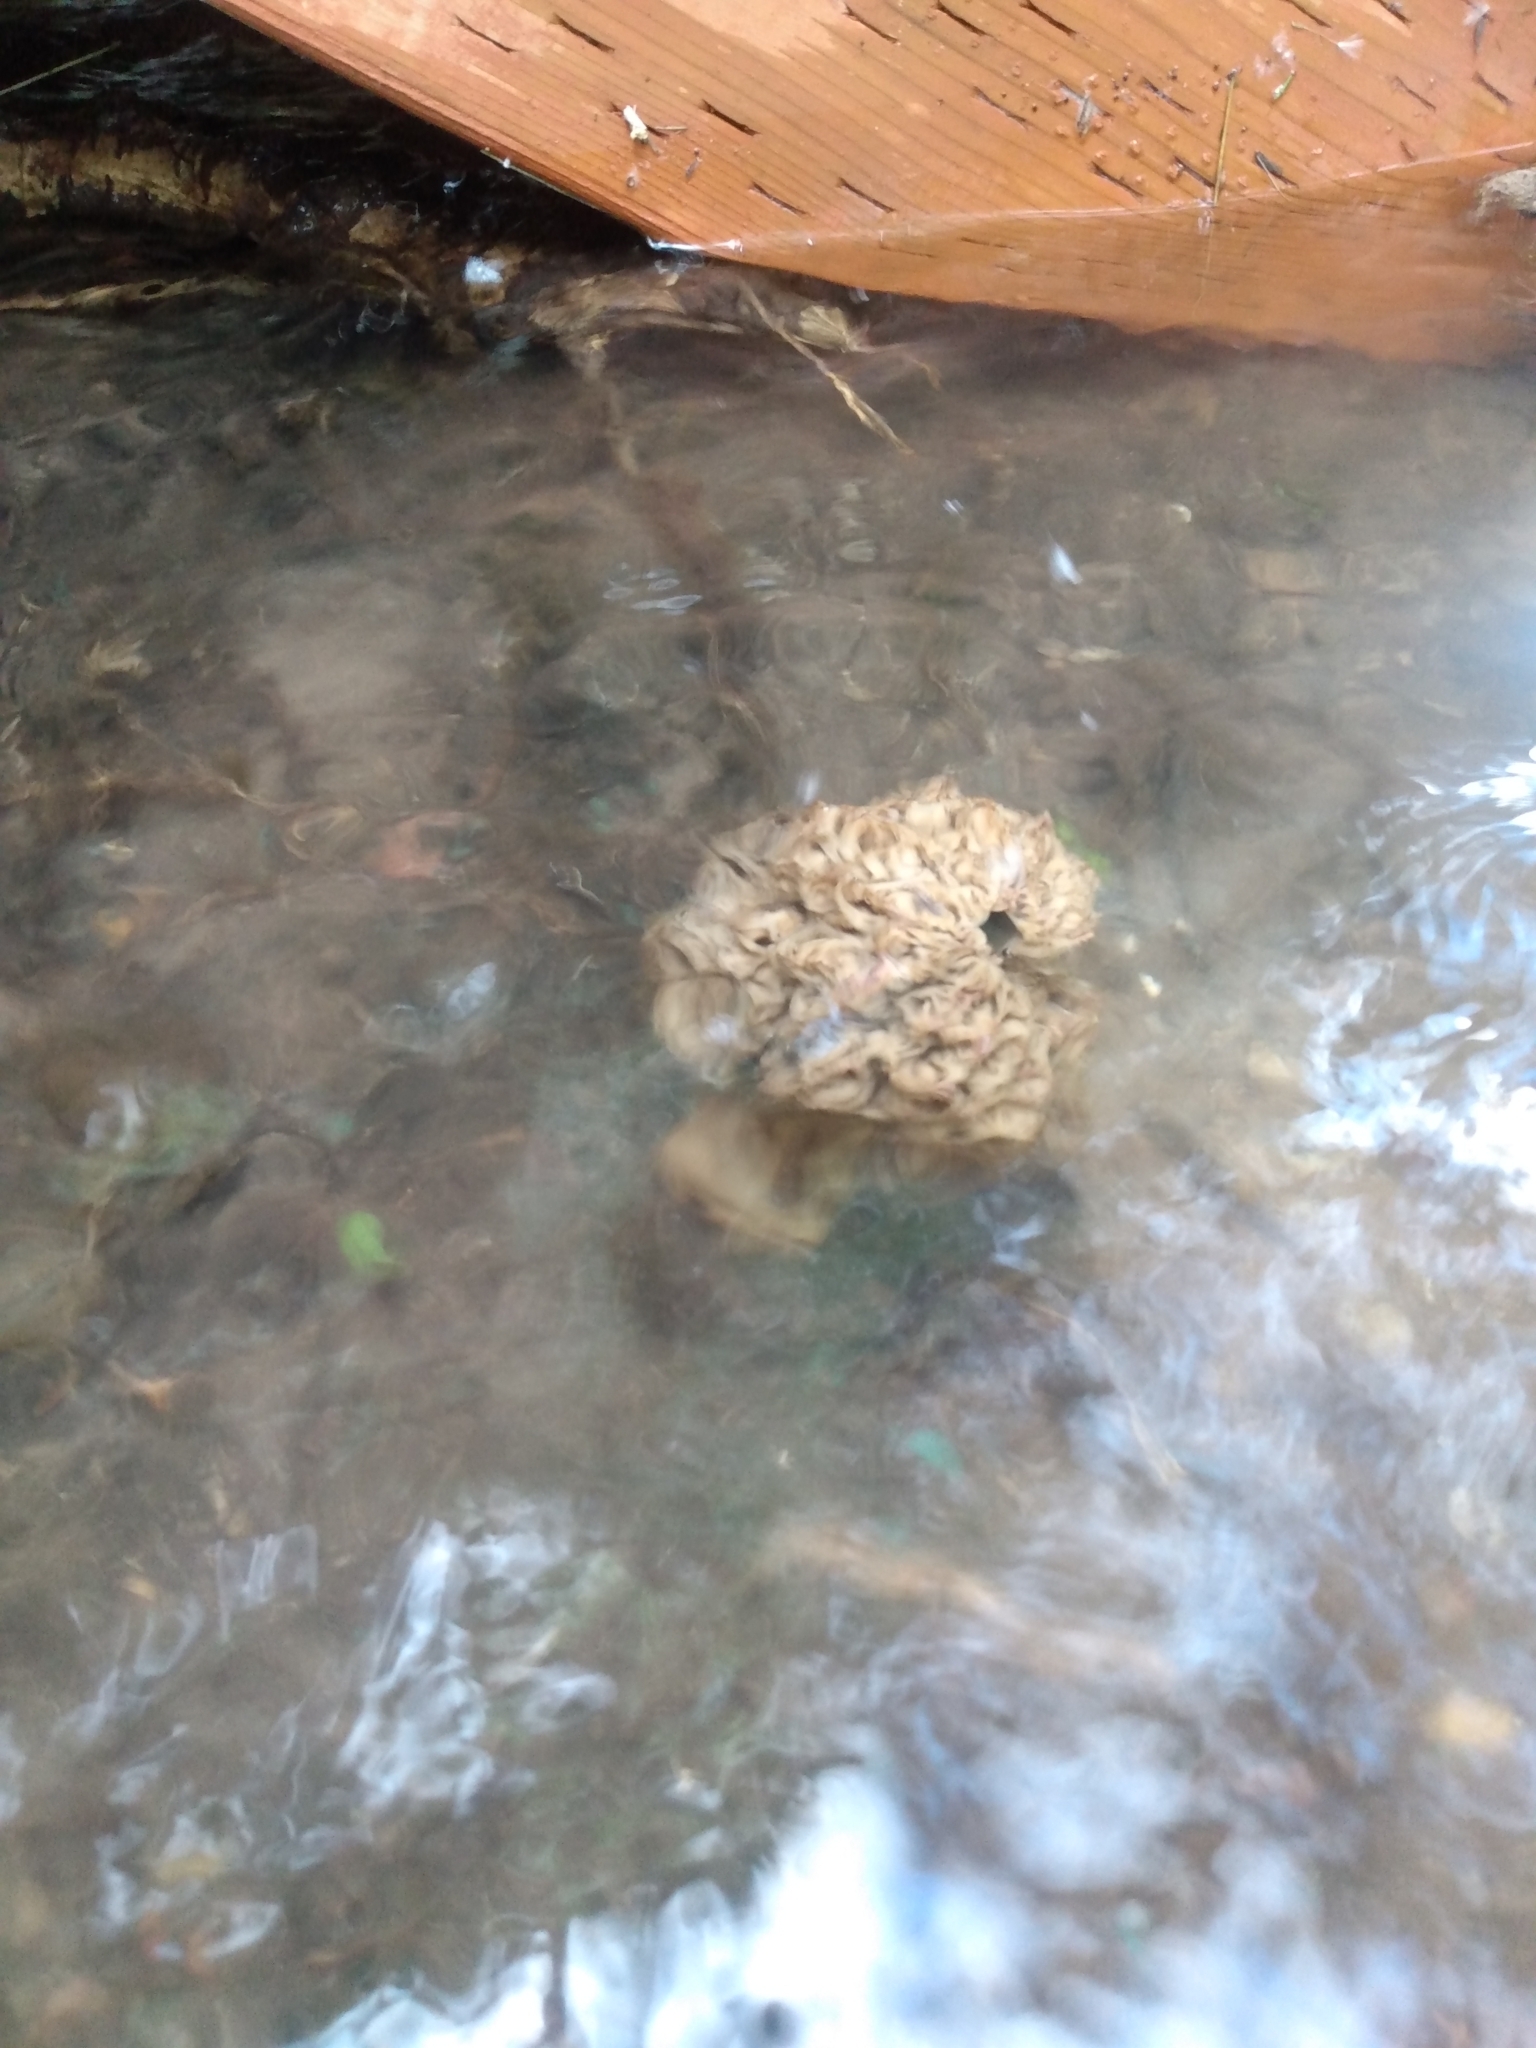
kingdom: Fungi
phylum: Ascomycota
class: Pezizomycetes
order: Pezizales
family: Morchellaceae
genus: Morchella
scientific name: Morchella americana
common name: White morel
